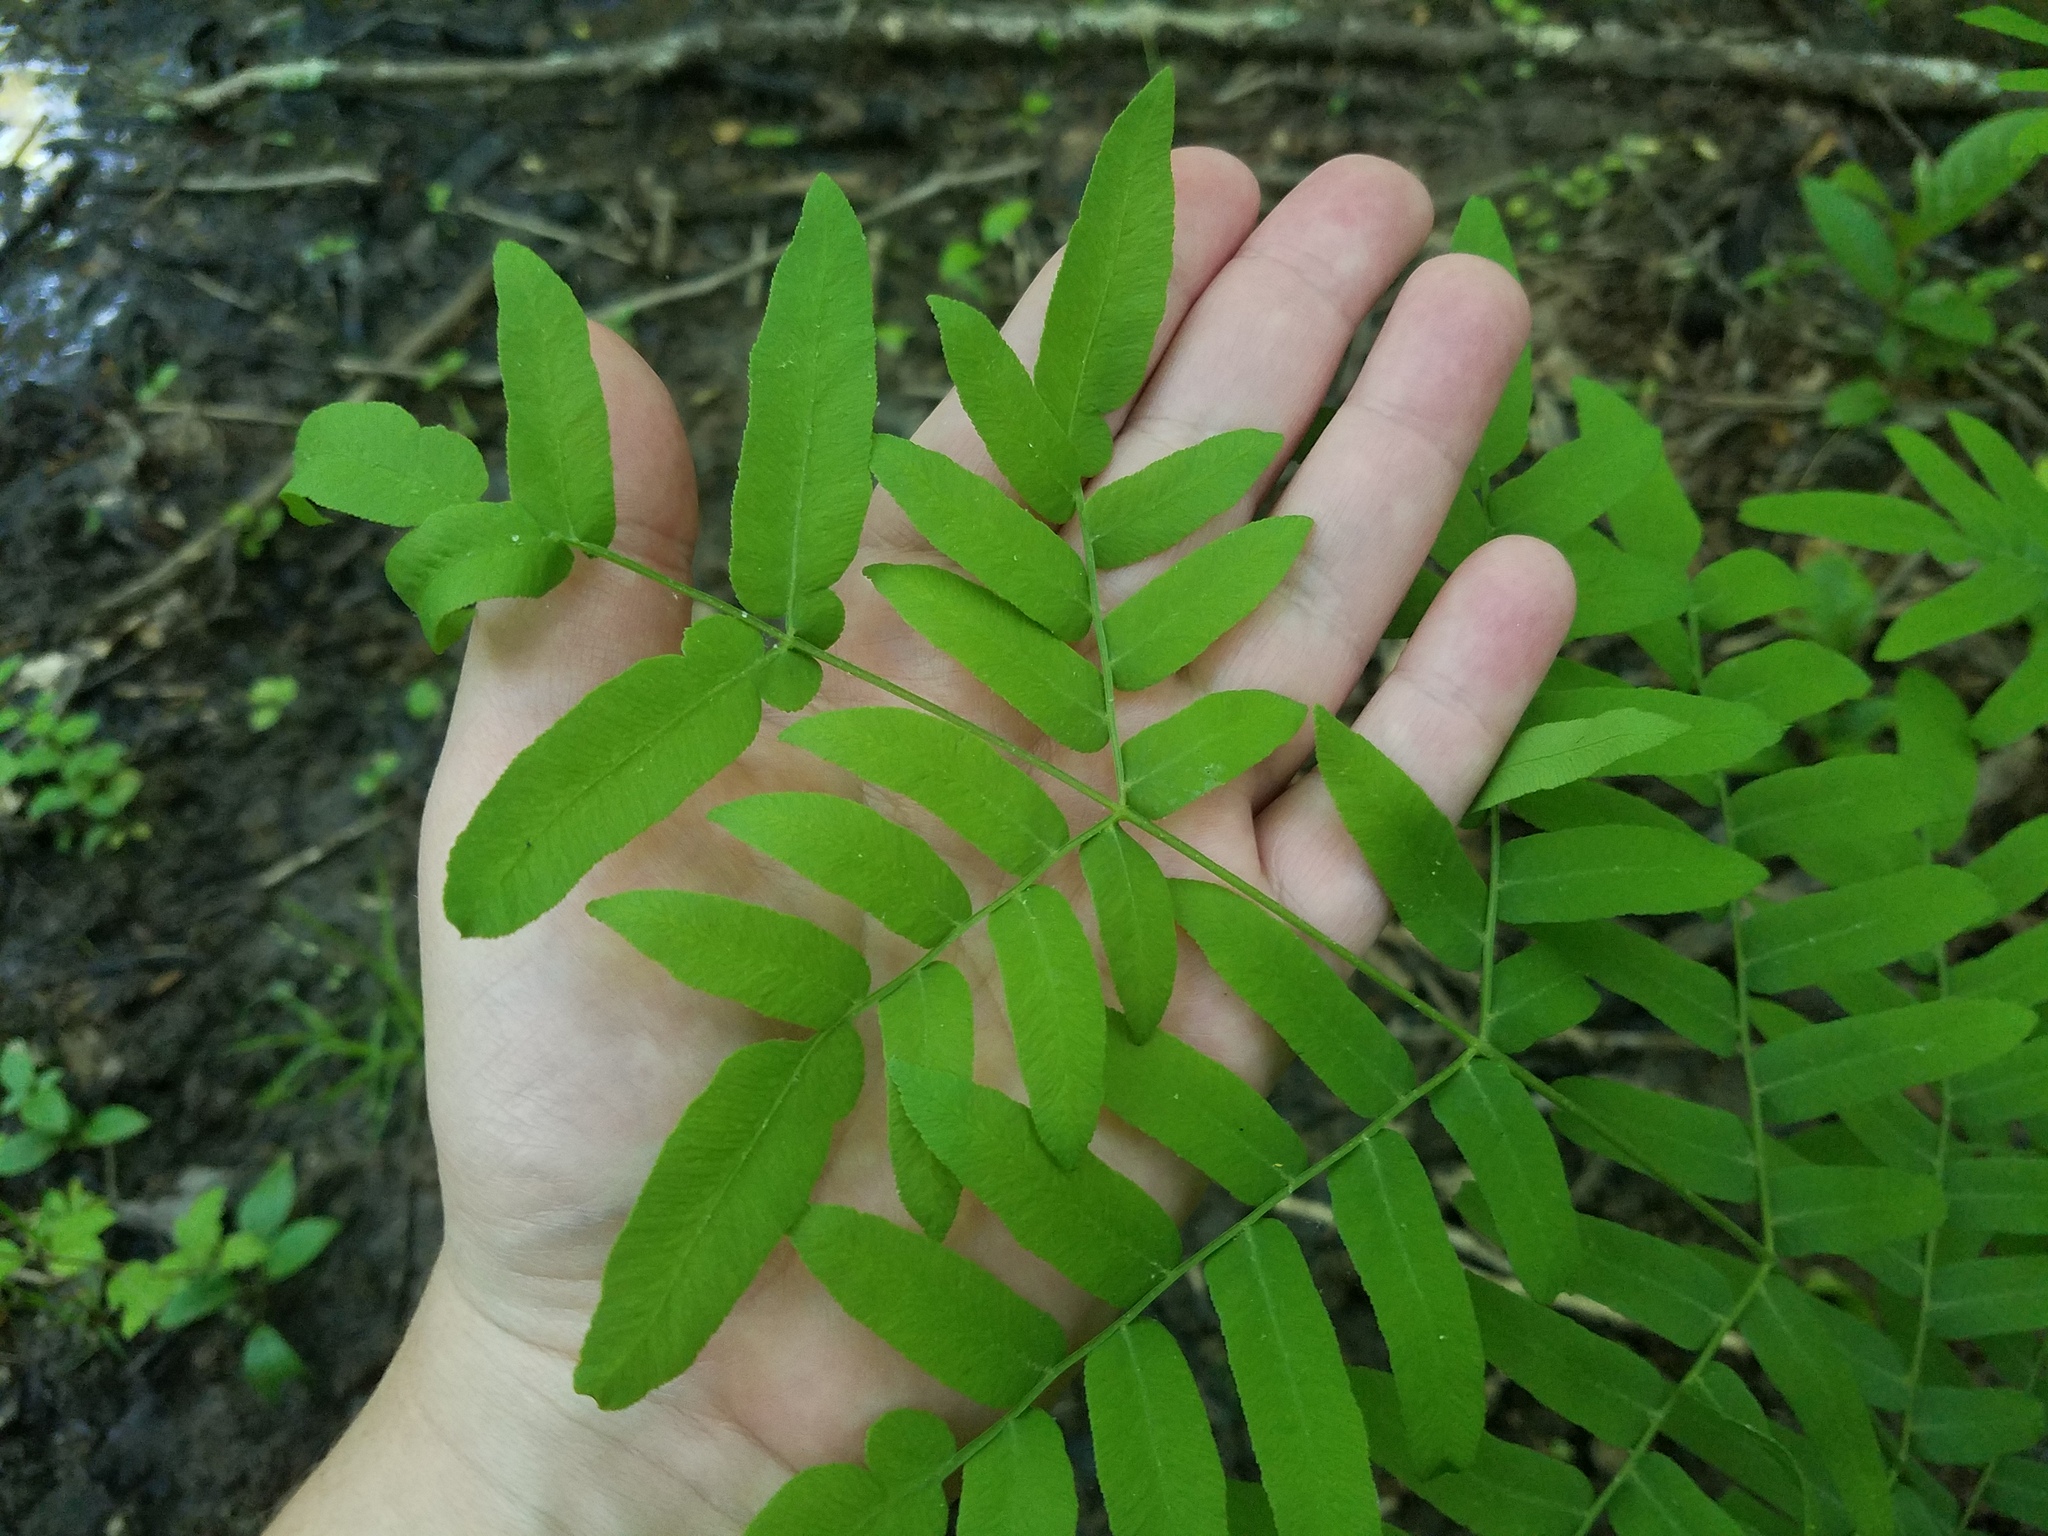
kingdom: Plantae
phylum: Tracheophyta
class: Polypodiopsida
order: Osmundales
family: Osmundaceae
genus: Osmunda
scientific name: Osmunda spectabilis
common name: American royal fern
